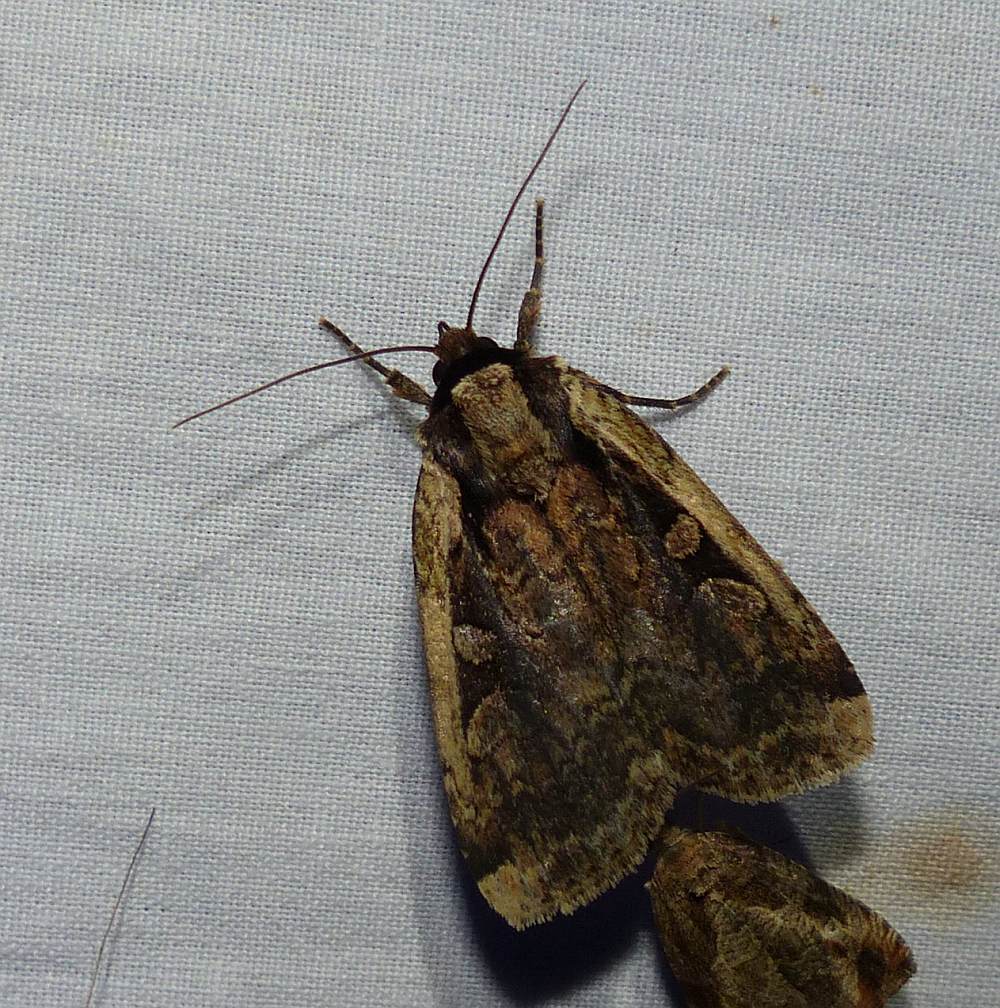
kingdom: Animalia
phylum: Arthropoda
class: Insecta
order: Lepidoptera
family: Noctuidae
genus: Eueretagrotis
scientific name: Eueretagrotis sigmoides
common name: Sigmoid dart
